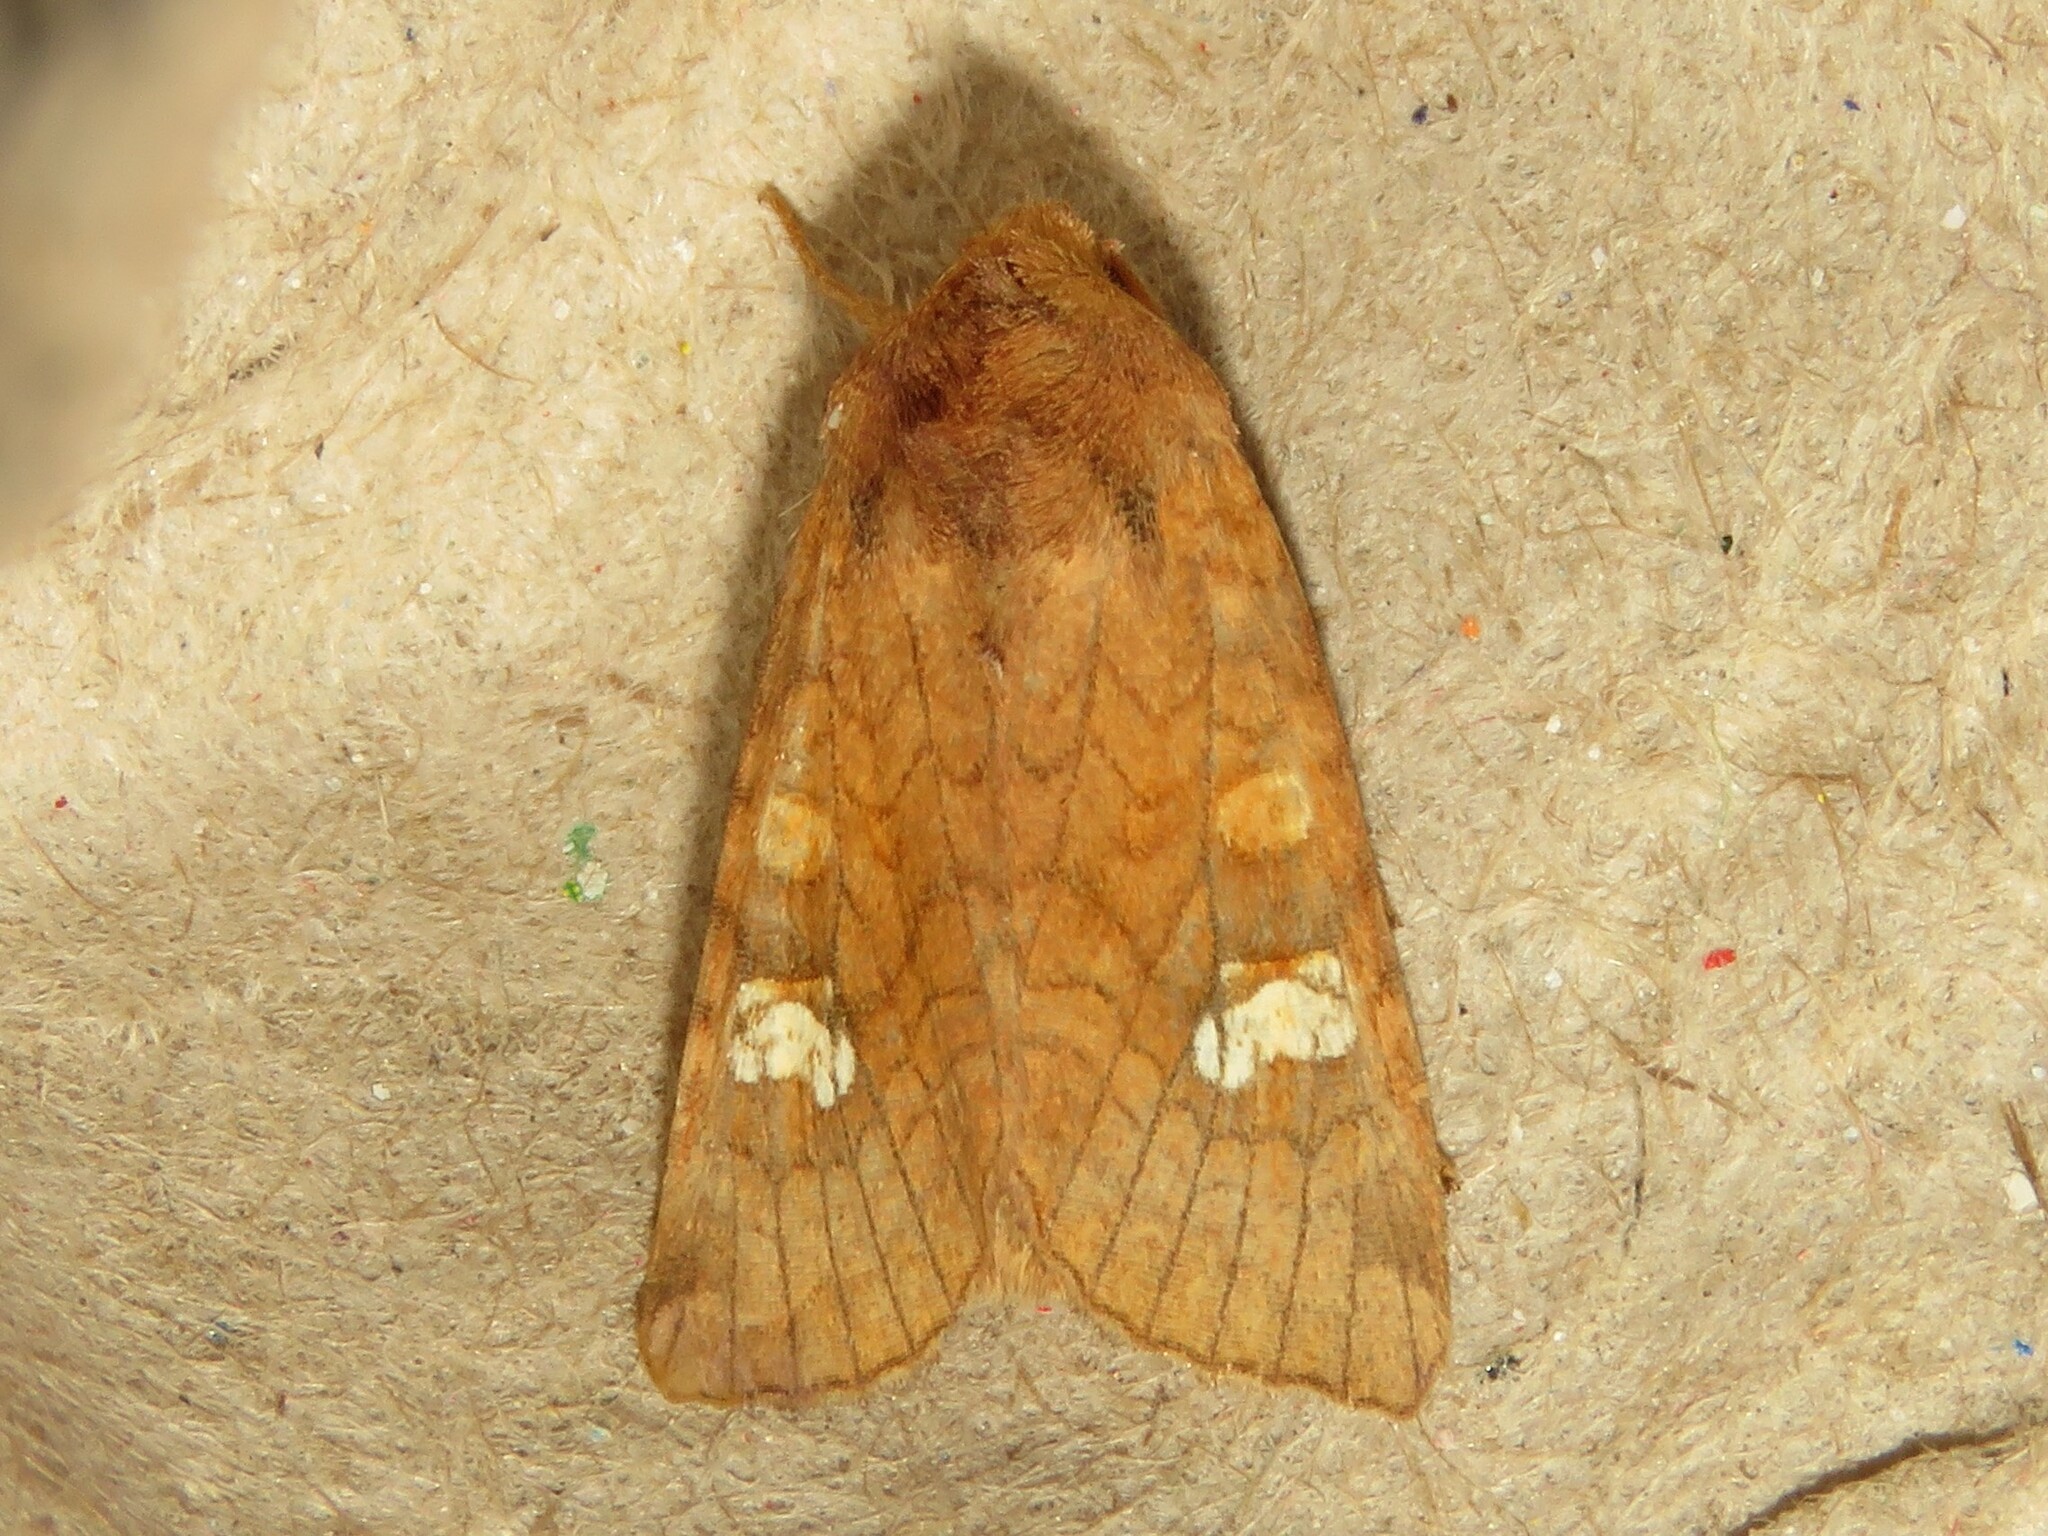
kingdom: Animalia
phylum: Arthropoda
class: Insecta
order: Lepidoptera
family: Noctuidae
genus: Amphipoea
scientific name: Amphipoea americana
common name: American ear moth
